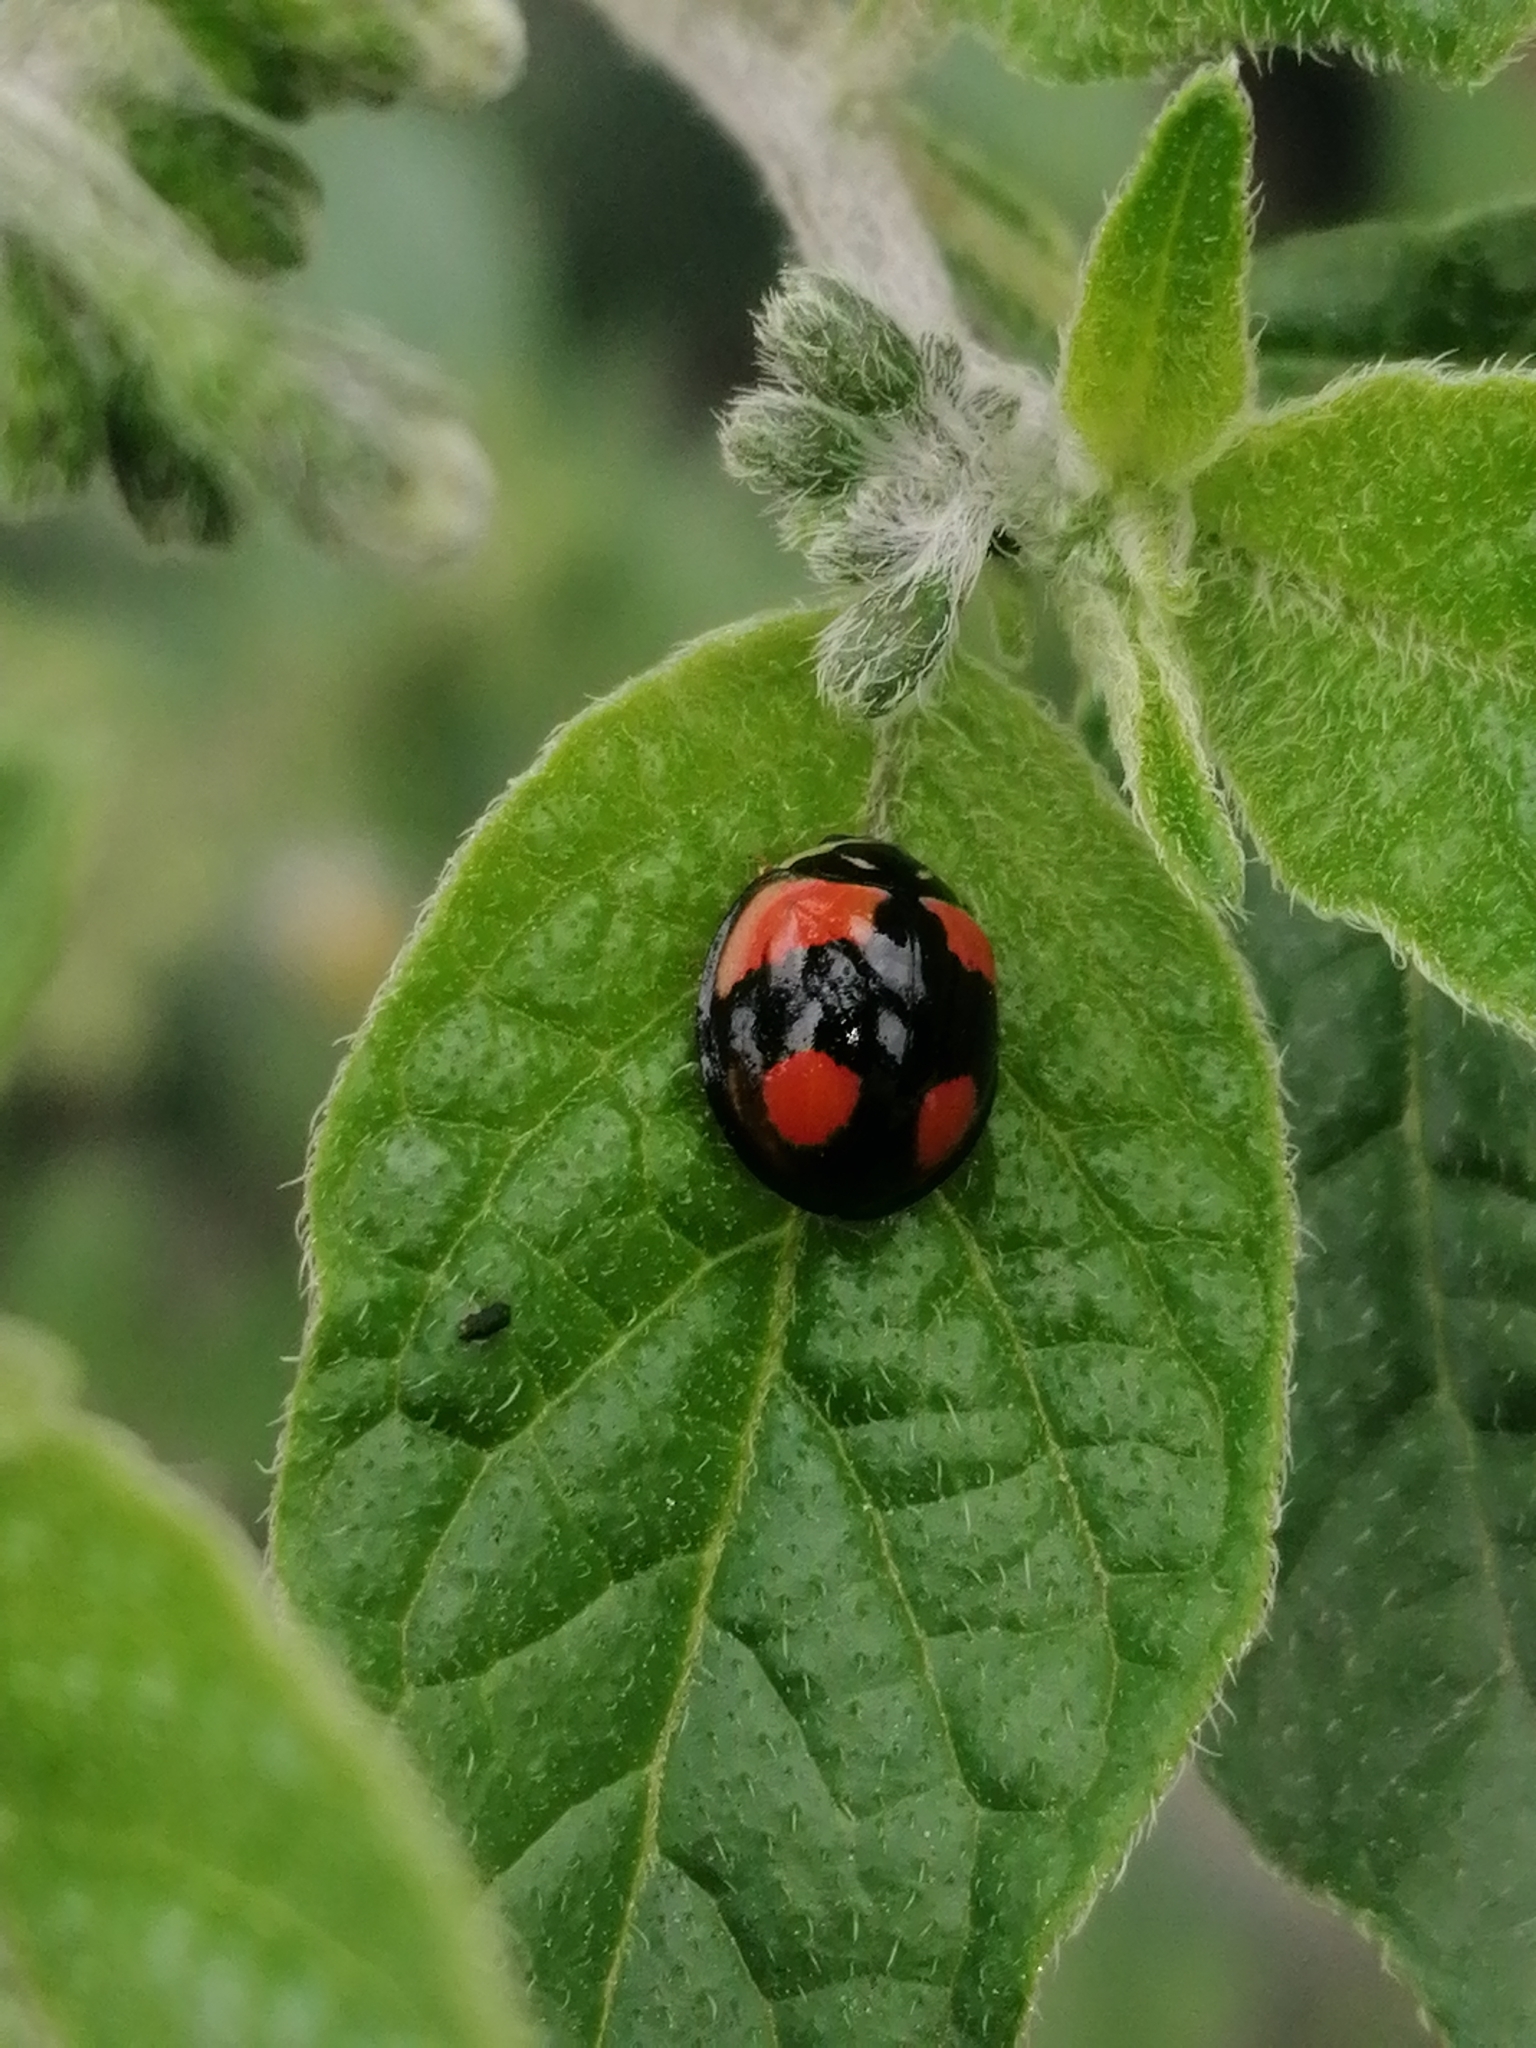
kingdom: Animalia
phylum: Arthropoda
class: Insecta
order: Coleoptera
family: Coccinellidae
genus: Cheilomenes
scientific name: Cheilomenes sexmaculata
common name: Ladybird beetle
